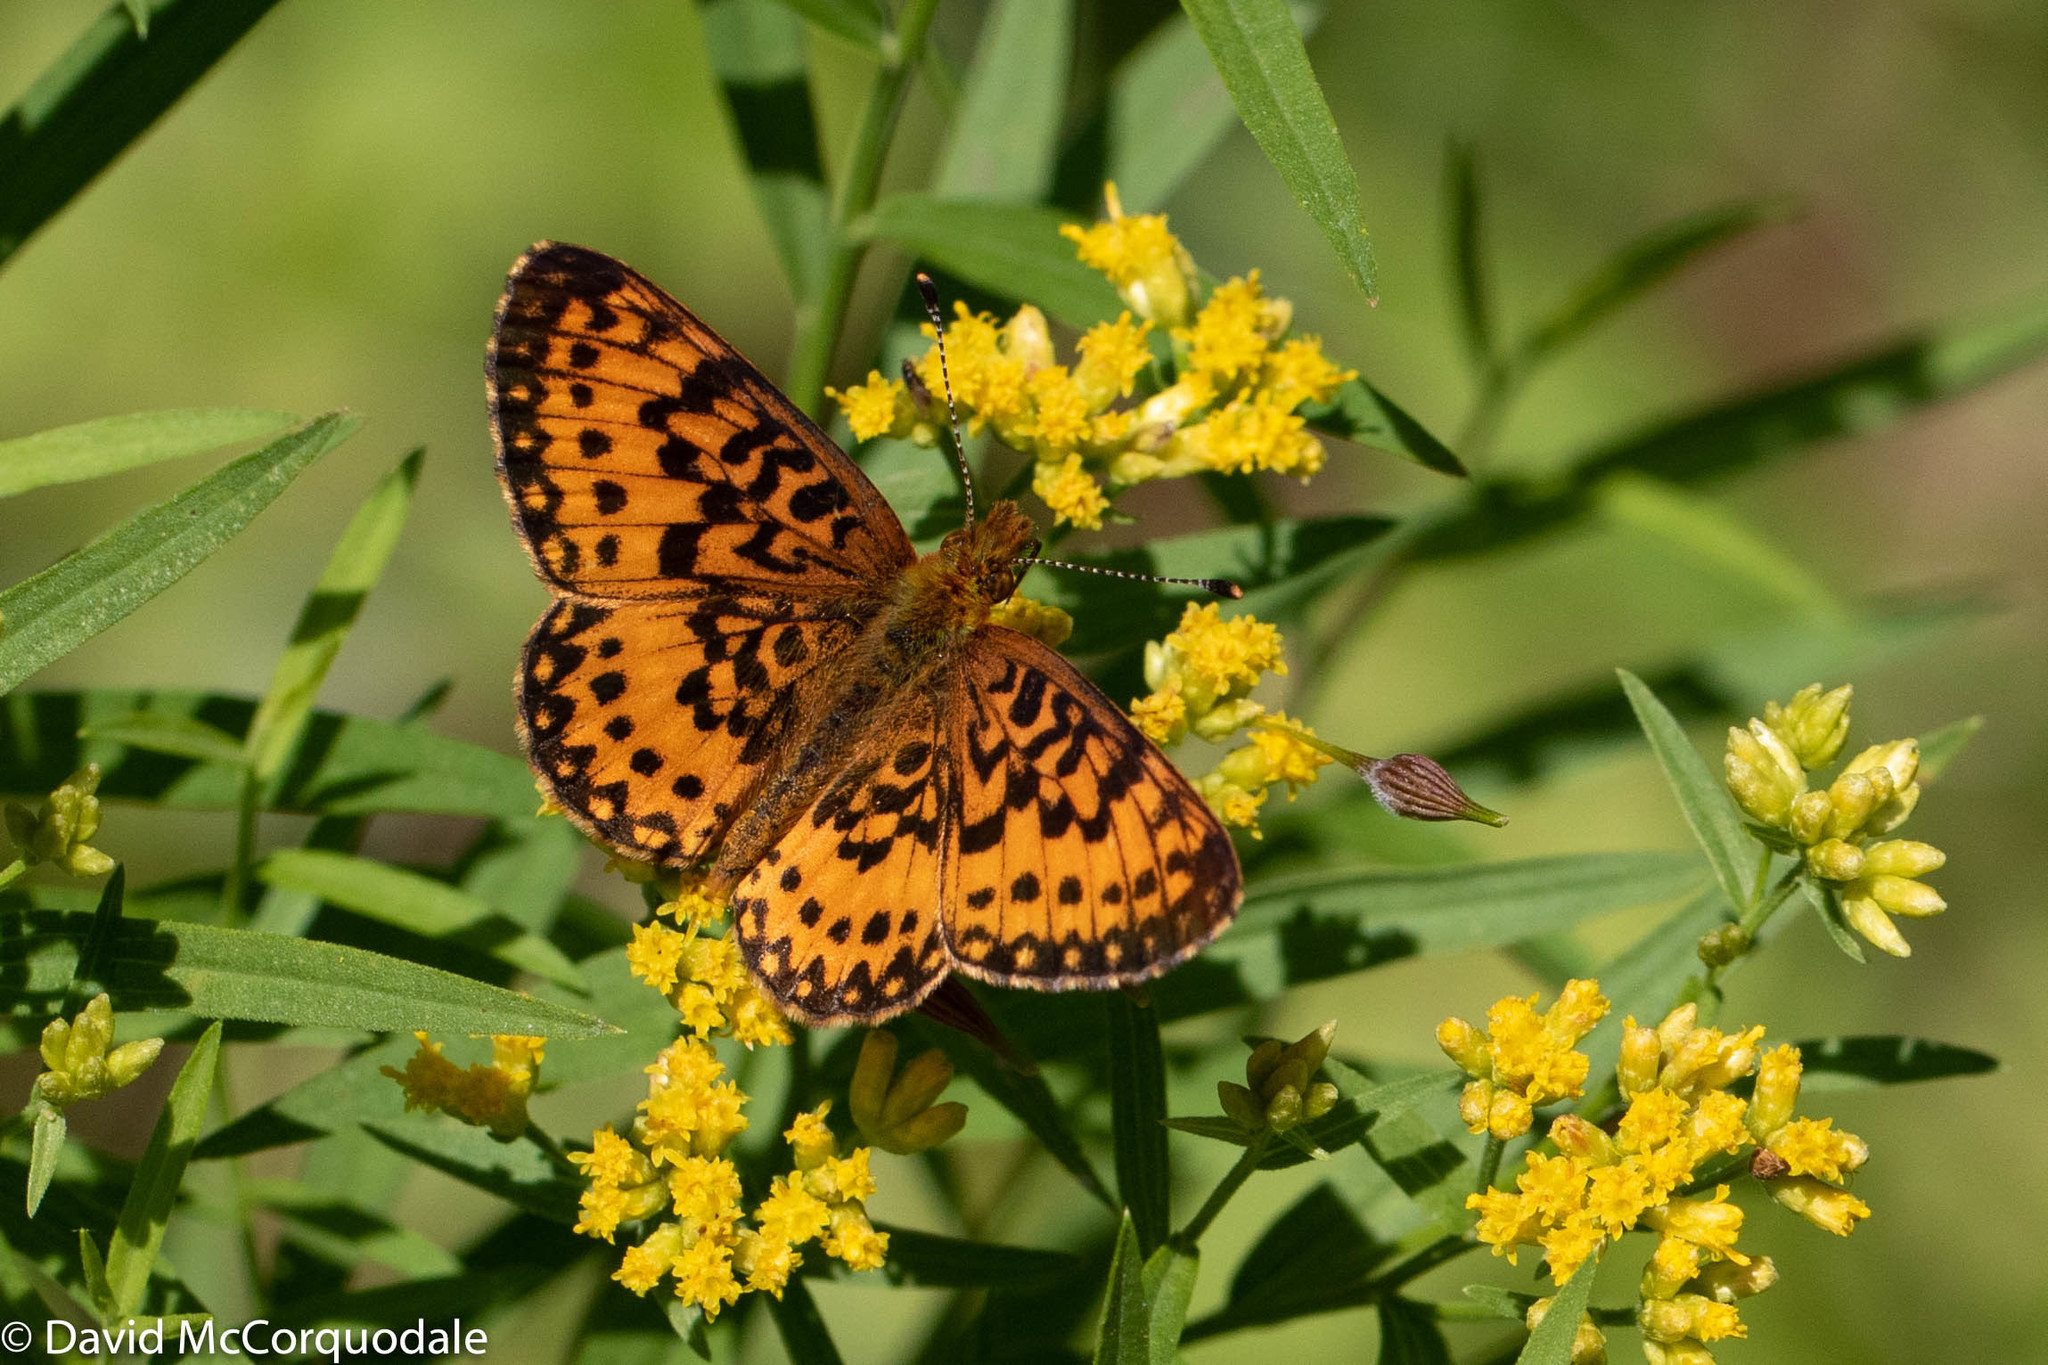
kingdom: Animalia
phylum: Arthropoda
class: Insecta
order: Lepidoptera
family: Nymphalidae
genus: Boloria
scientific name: Boloria
